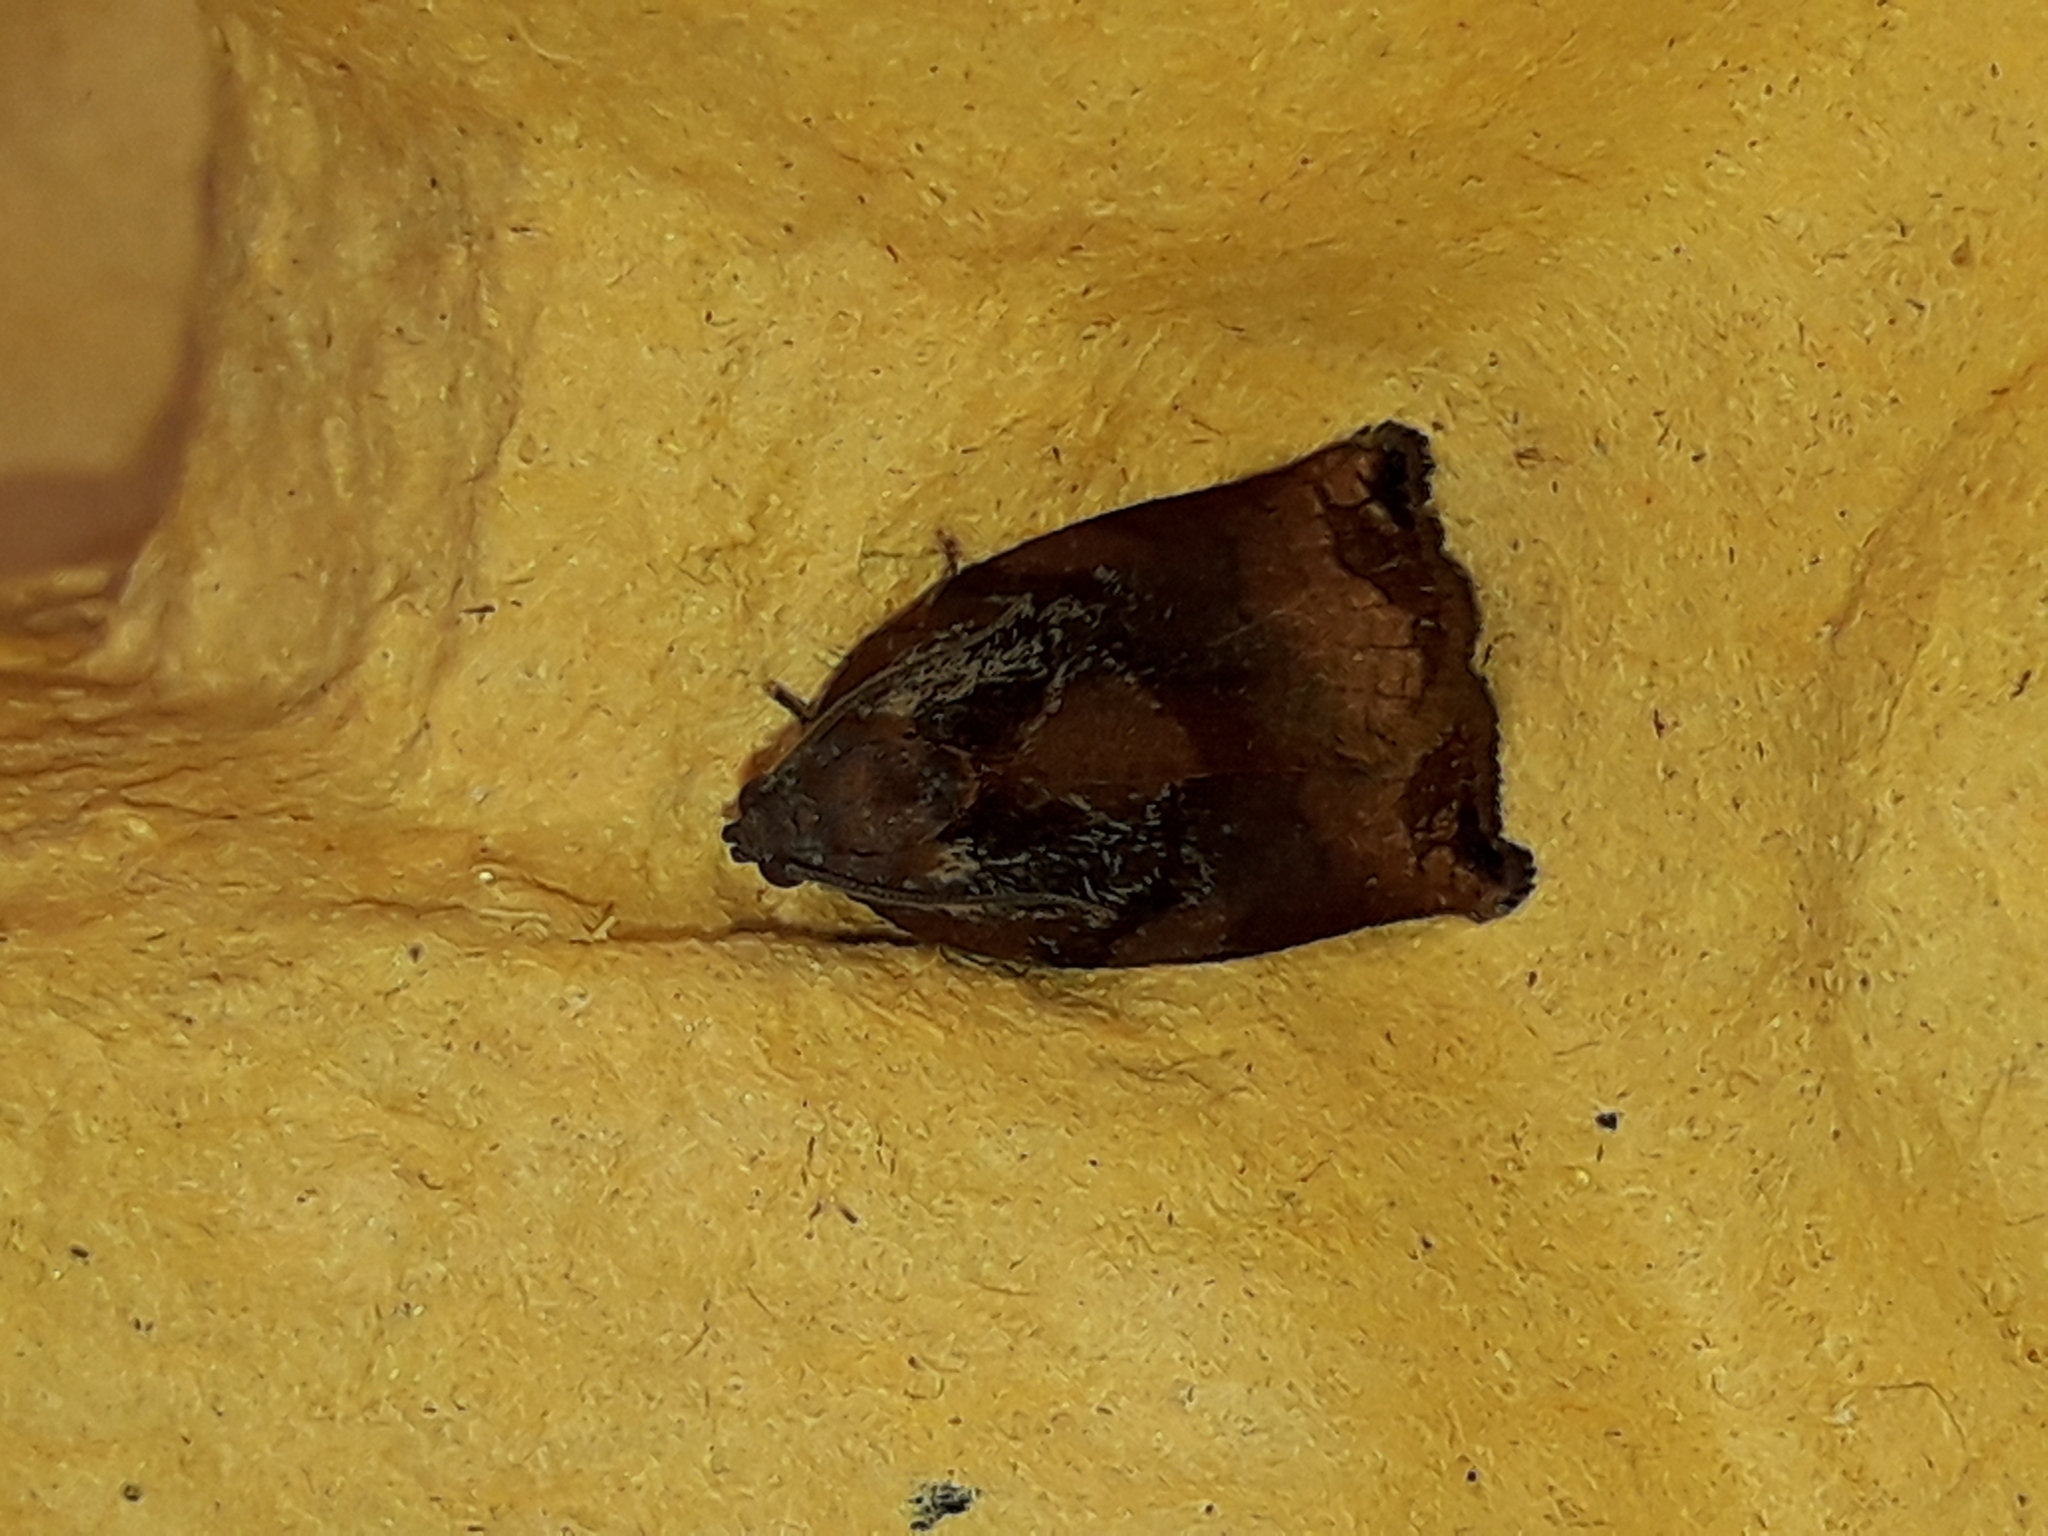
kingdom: Animalia
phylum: Arthropoda
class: Insecta
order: Lepidoptera
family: Tortricidae
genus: Archips
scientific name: Archips podana
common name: Large fruit-tree tortrix
